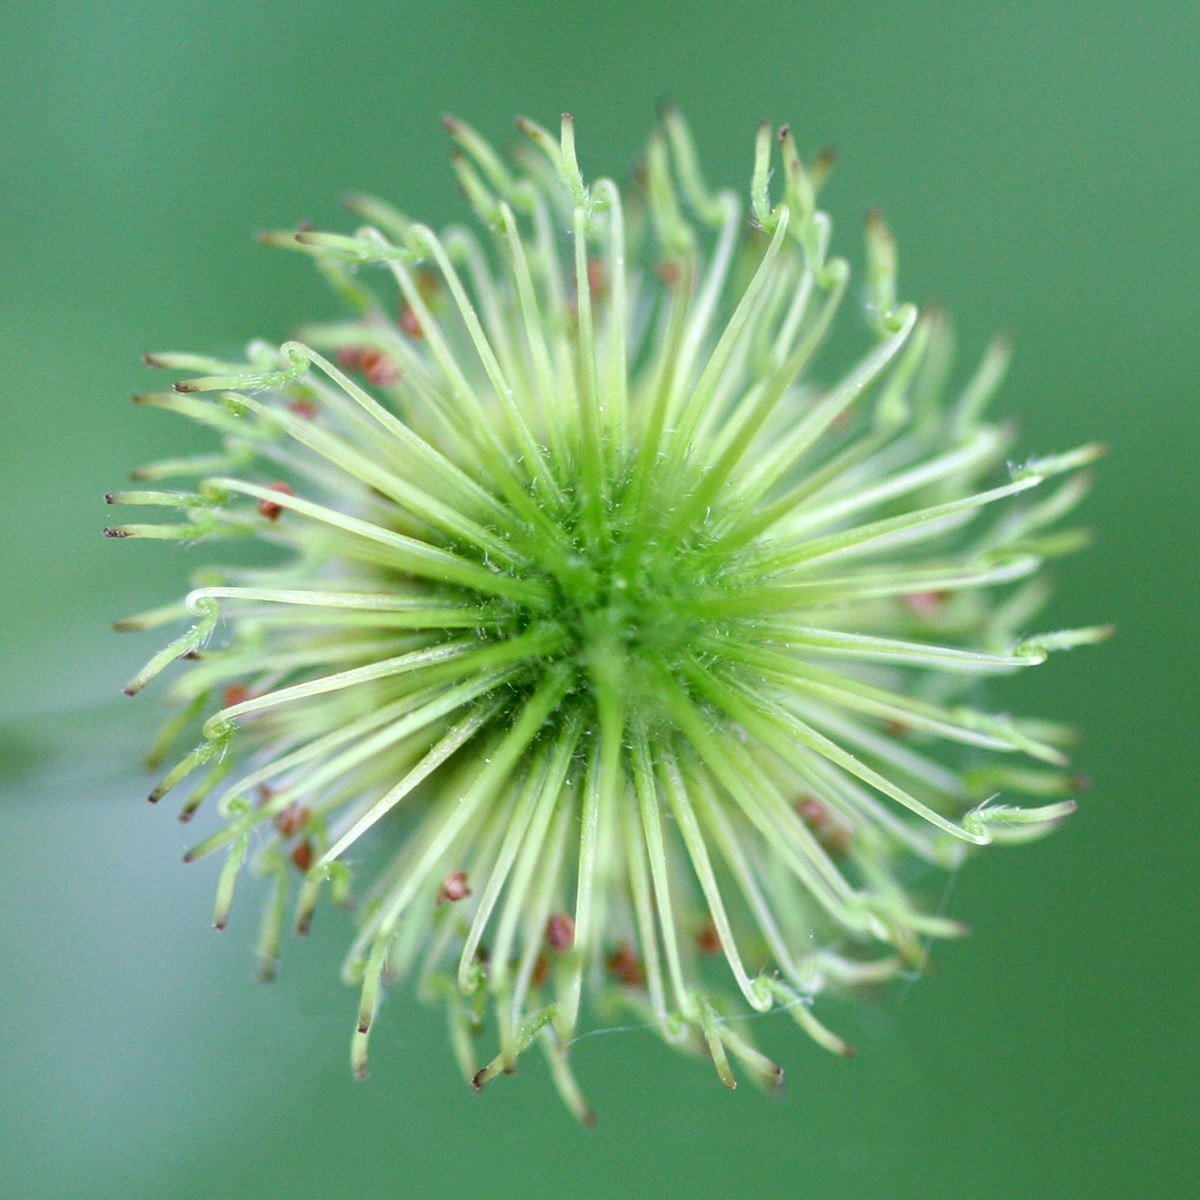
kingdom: Plantae
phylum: Tracheophyta
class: Magnoliopsida
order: Rosales
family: Rosaceae
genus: Geum
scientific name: Geum canadense
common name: White avens
